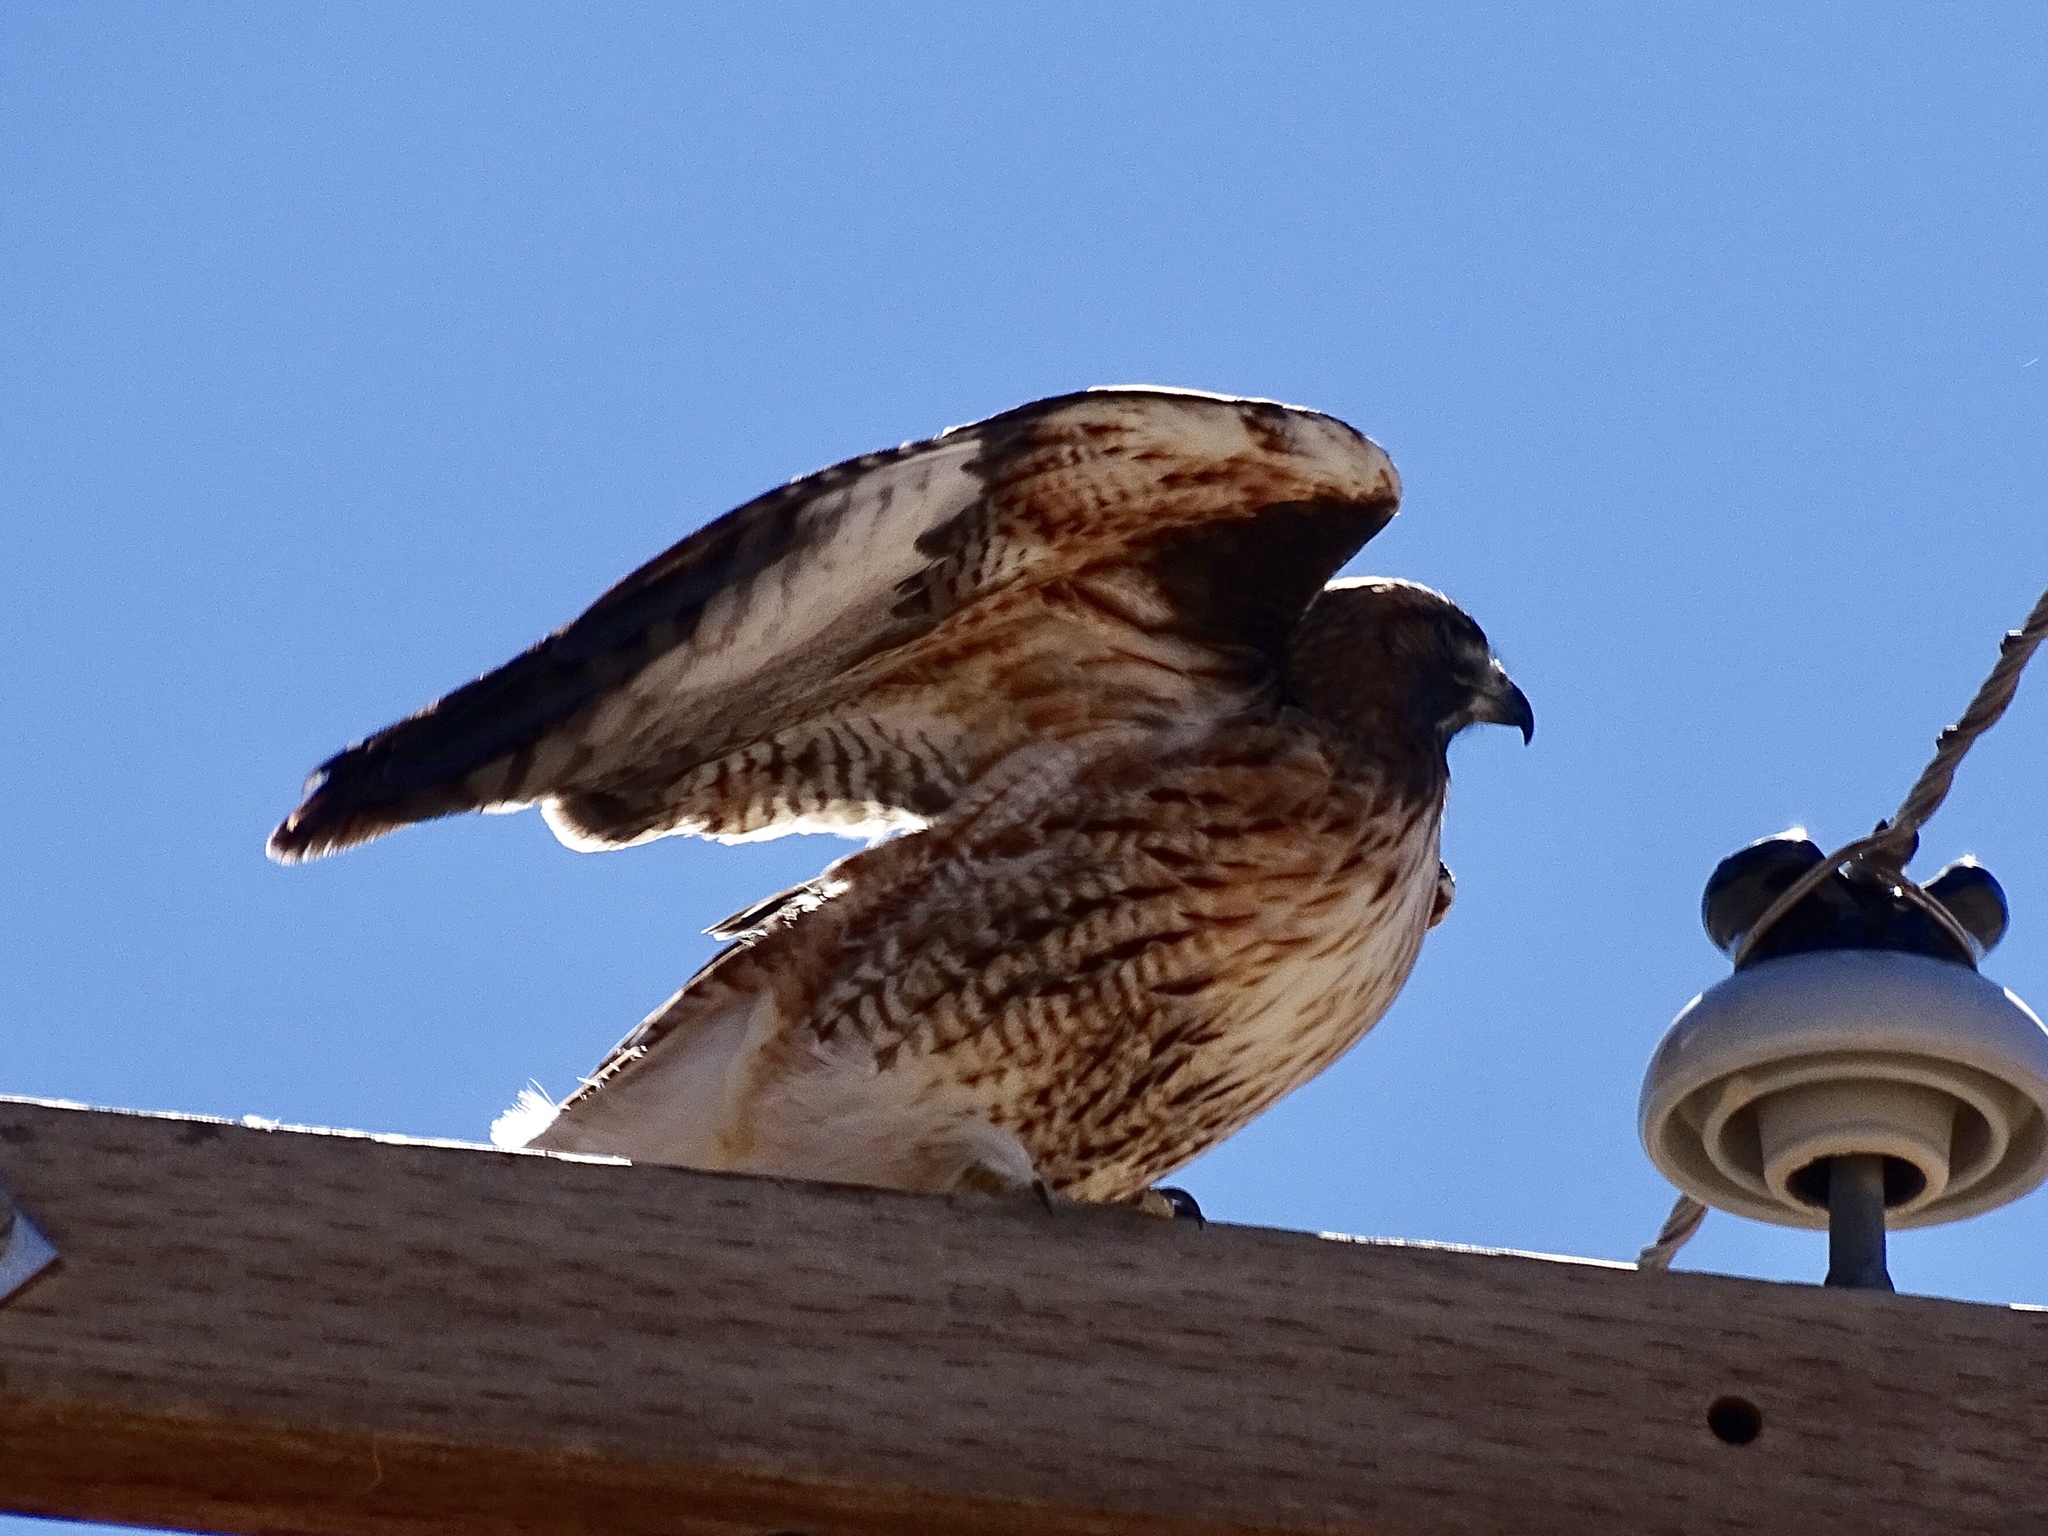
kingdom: Animalia
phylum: Chordata
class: Aves
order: Accipitriformes
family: Accipitridae
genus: Buteo
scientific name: Buteo jamaicensis
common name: Red-tailed hawk
